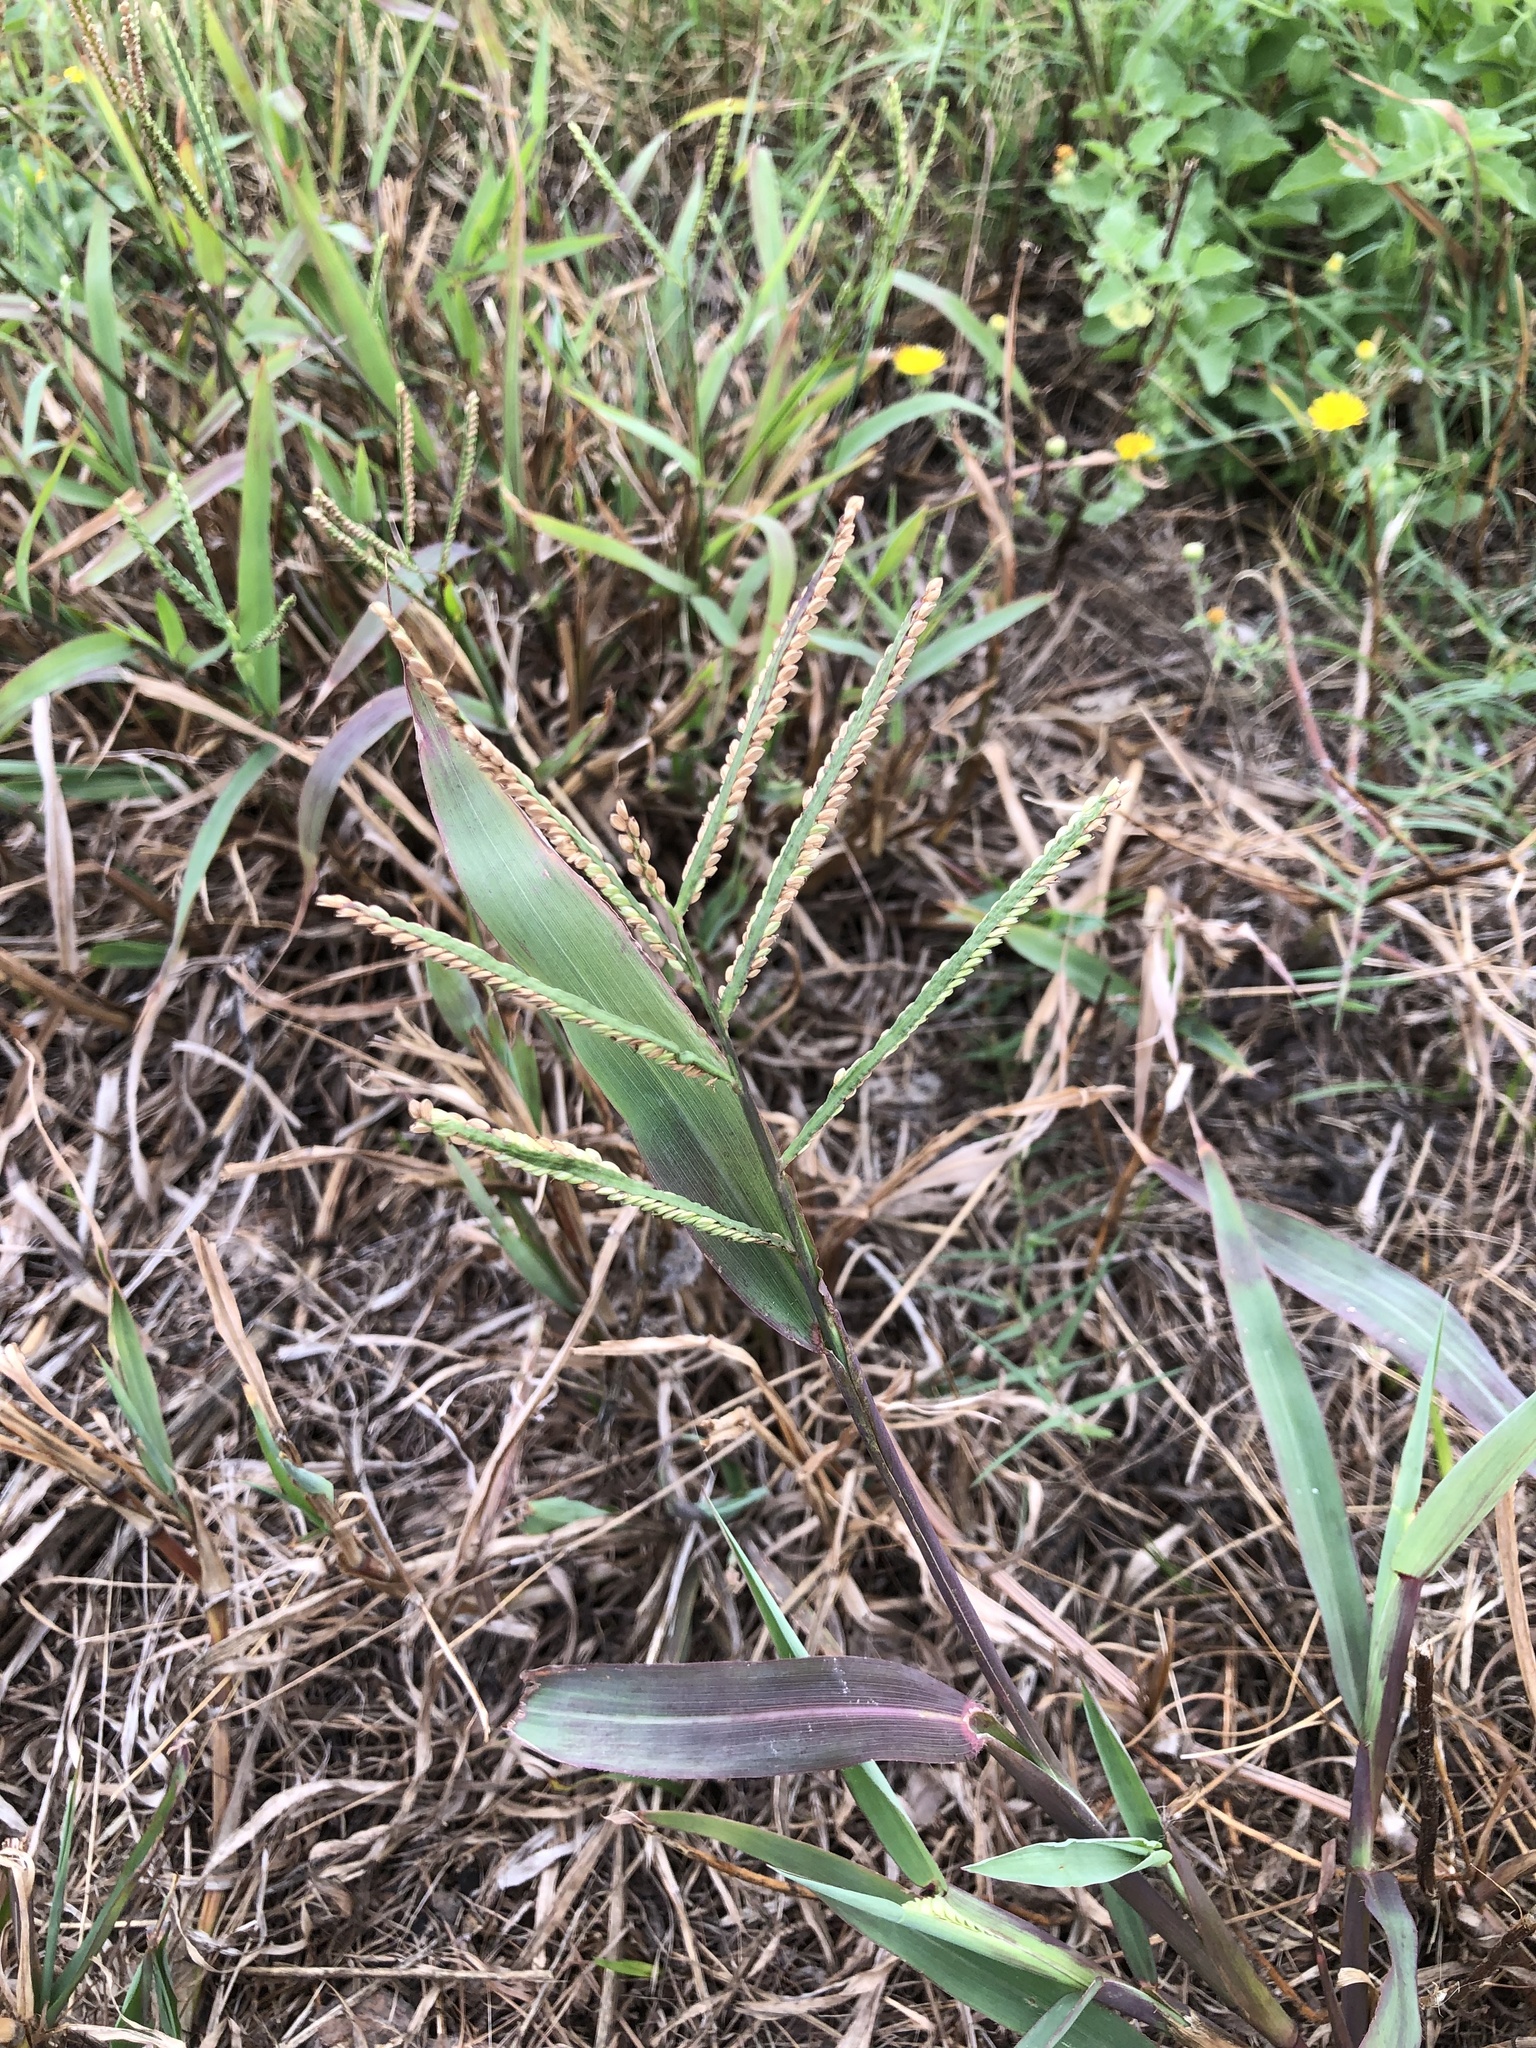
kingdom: Plantae
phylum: Tracheophyta
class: Liliopsida
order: Poales
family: Poaceae
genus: Paspalum
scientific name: Paspalum pubiflorum
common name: Hairy-seed paspalum
